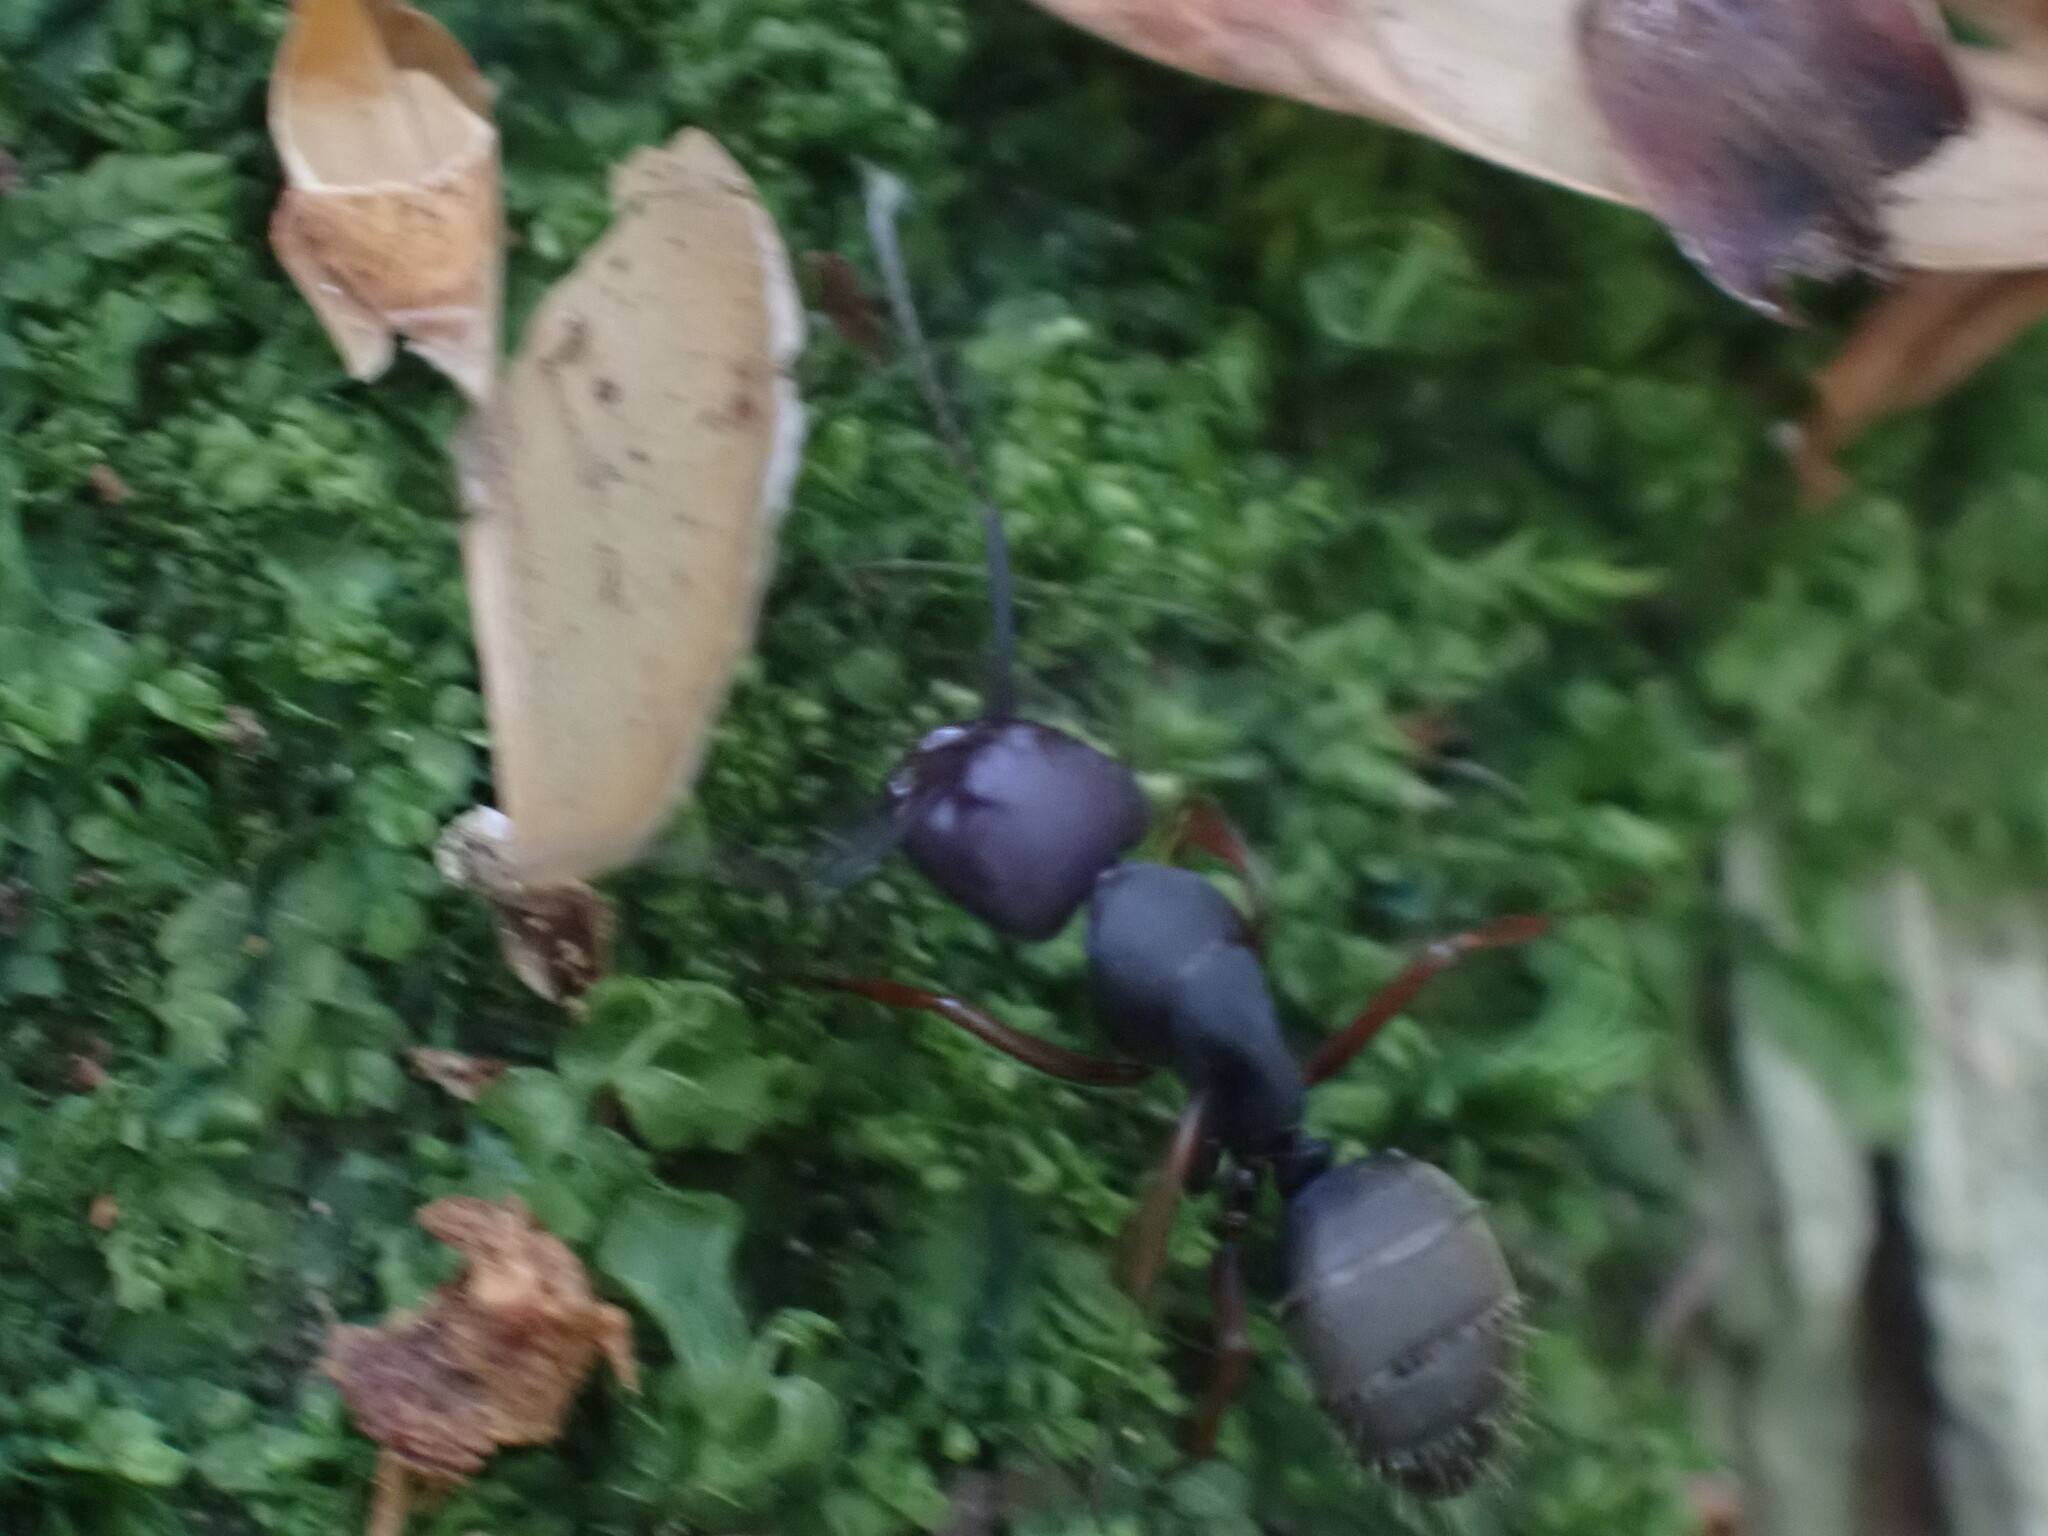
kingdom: Animalia
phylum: Arthropoda
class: Insecta
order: Hymenoptera
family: Formicidae
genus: Camponotus
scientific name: Camponotus modoc
